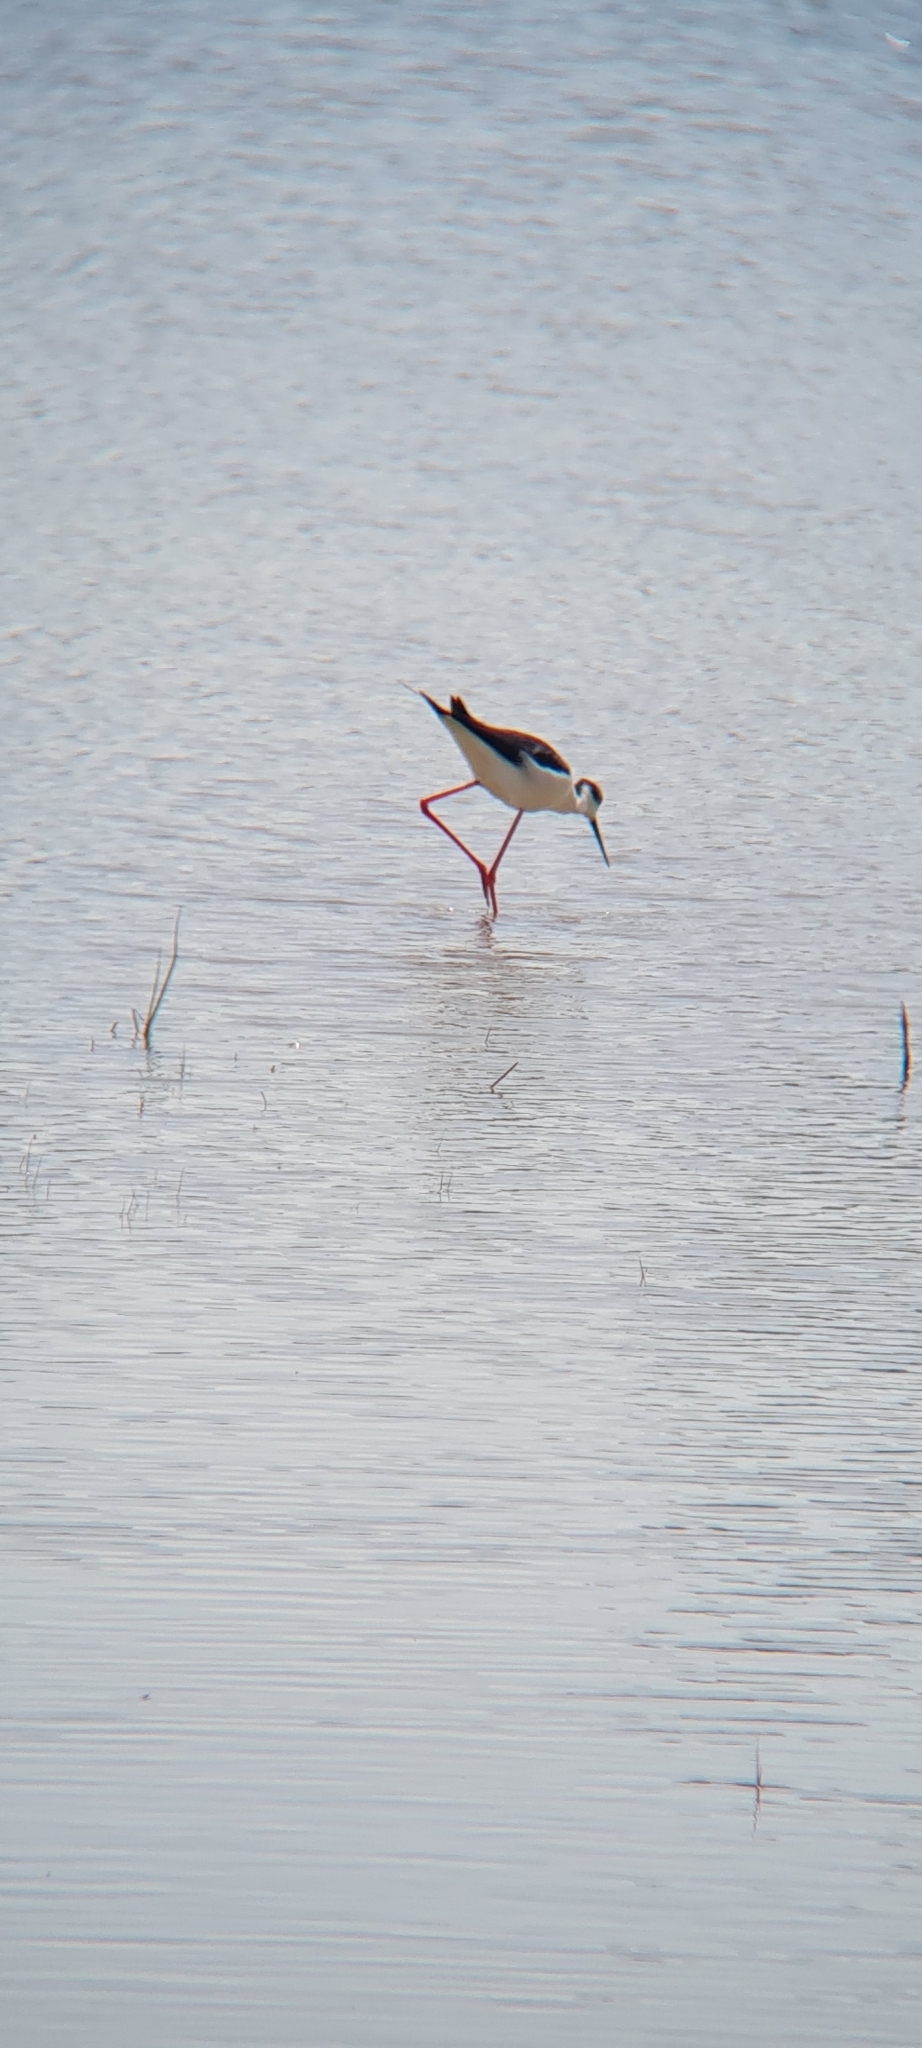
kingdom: Animalia
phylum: Chordata
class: Aves
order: Charadriiformes
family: Recurvirostridae
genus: Himantopus
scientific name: Himantopus himantopus
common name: Black-winged stilt
